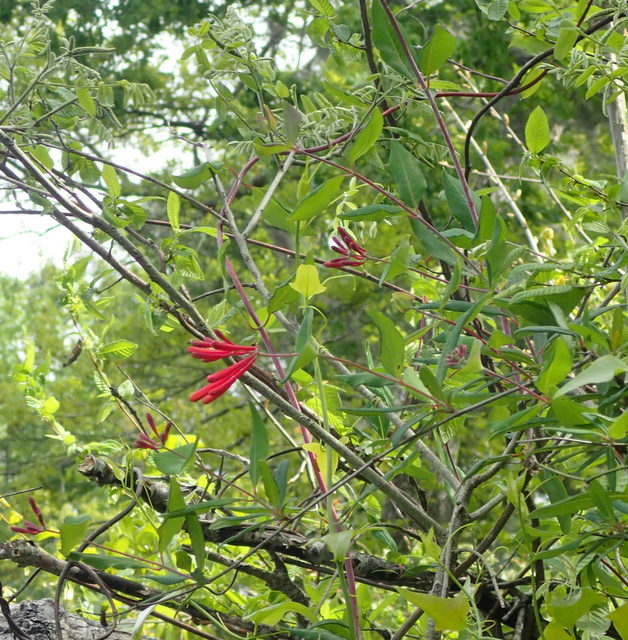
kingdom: Plantae
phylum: Tracheophyta
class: Magnoliopsida
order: Dipsacales
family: Caprifoliaceae
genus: Lonicera
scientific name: Lonicera sempervirens
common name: Coral honeysuckle
